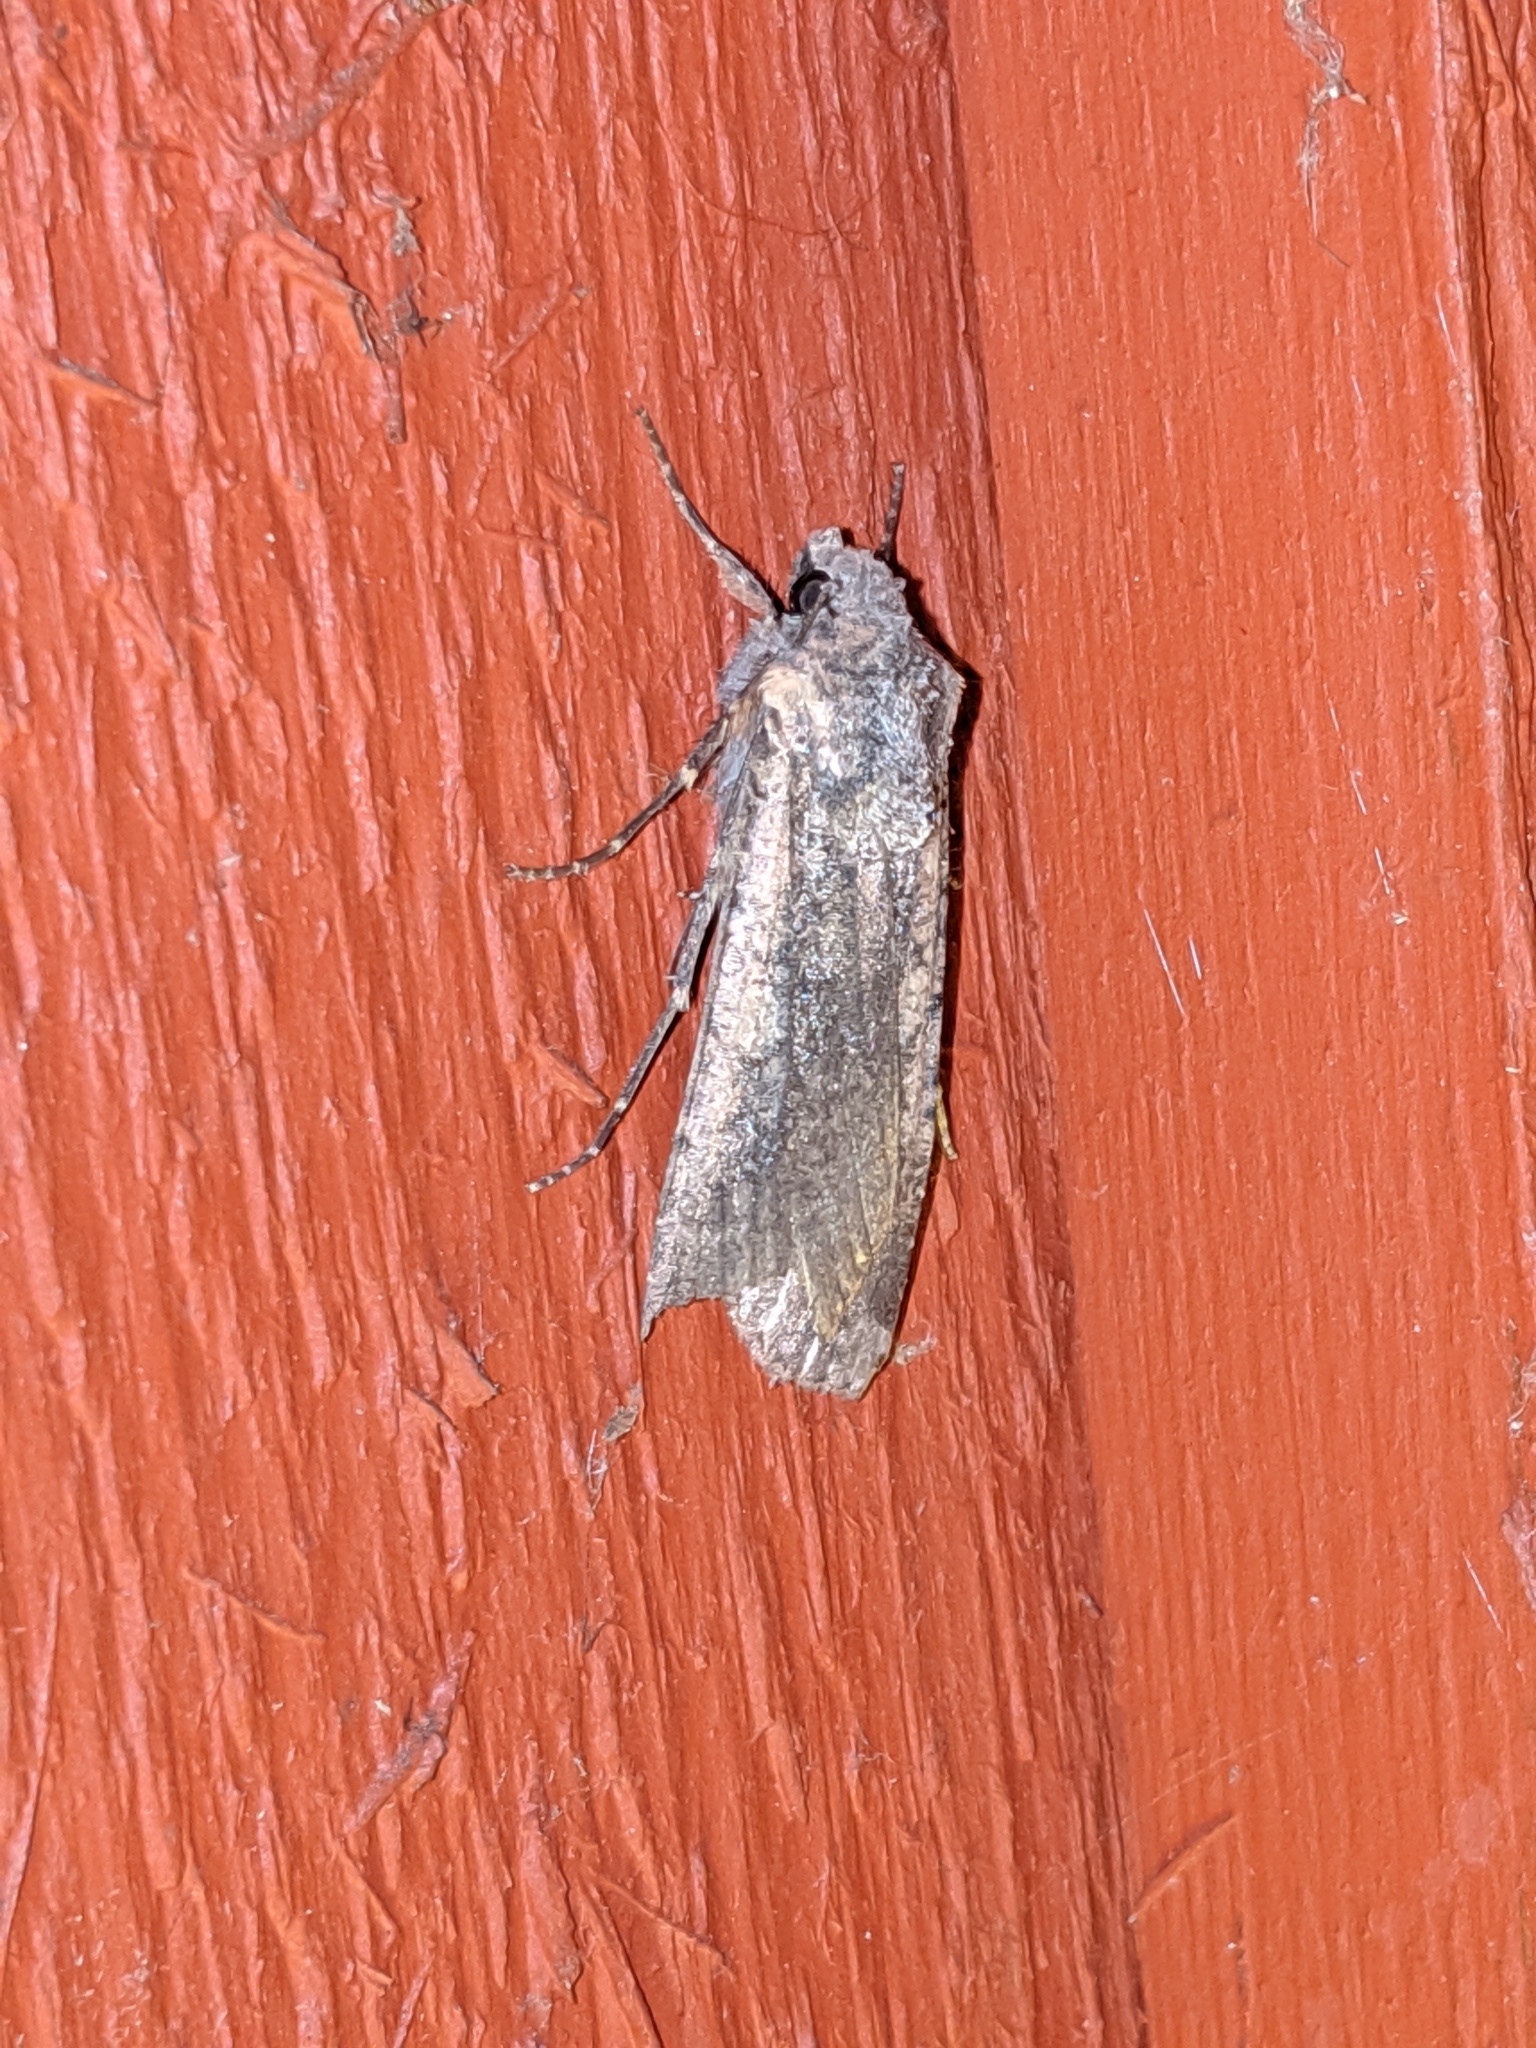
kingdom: Animalia
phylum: Arthropoda
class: Insecta
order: Lepidoptera
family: Noctuidae
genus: Peridroma
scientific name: Peridroma saucia
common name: Pearly underwing
